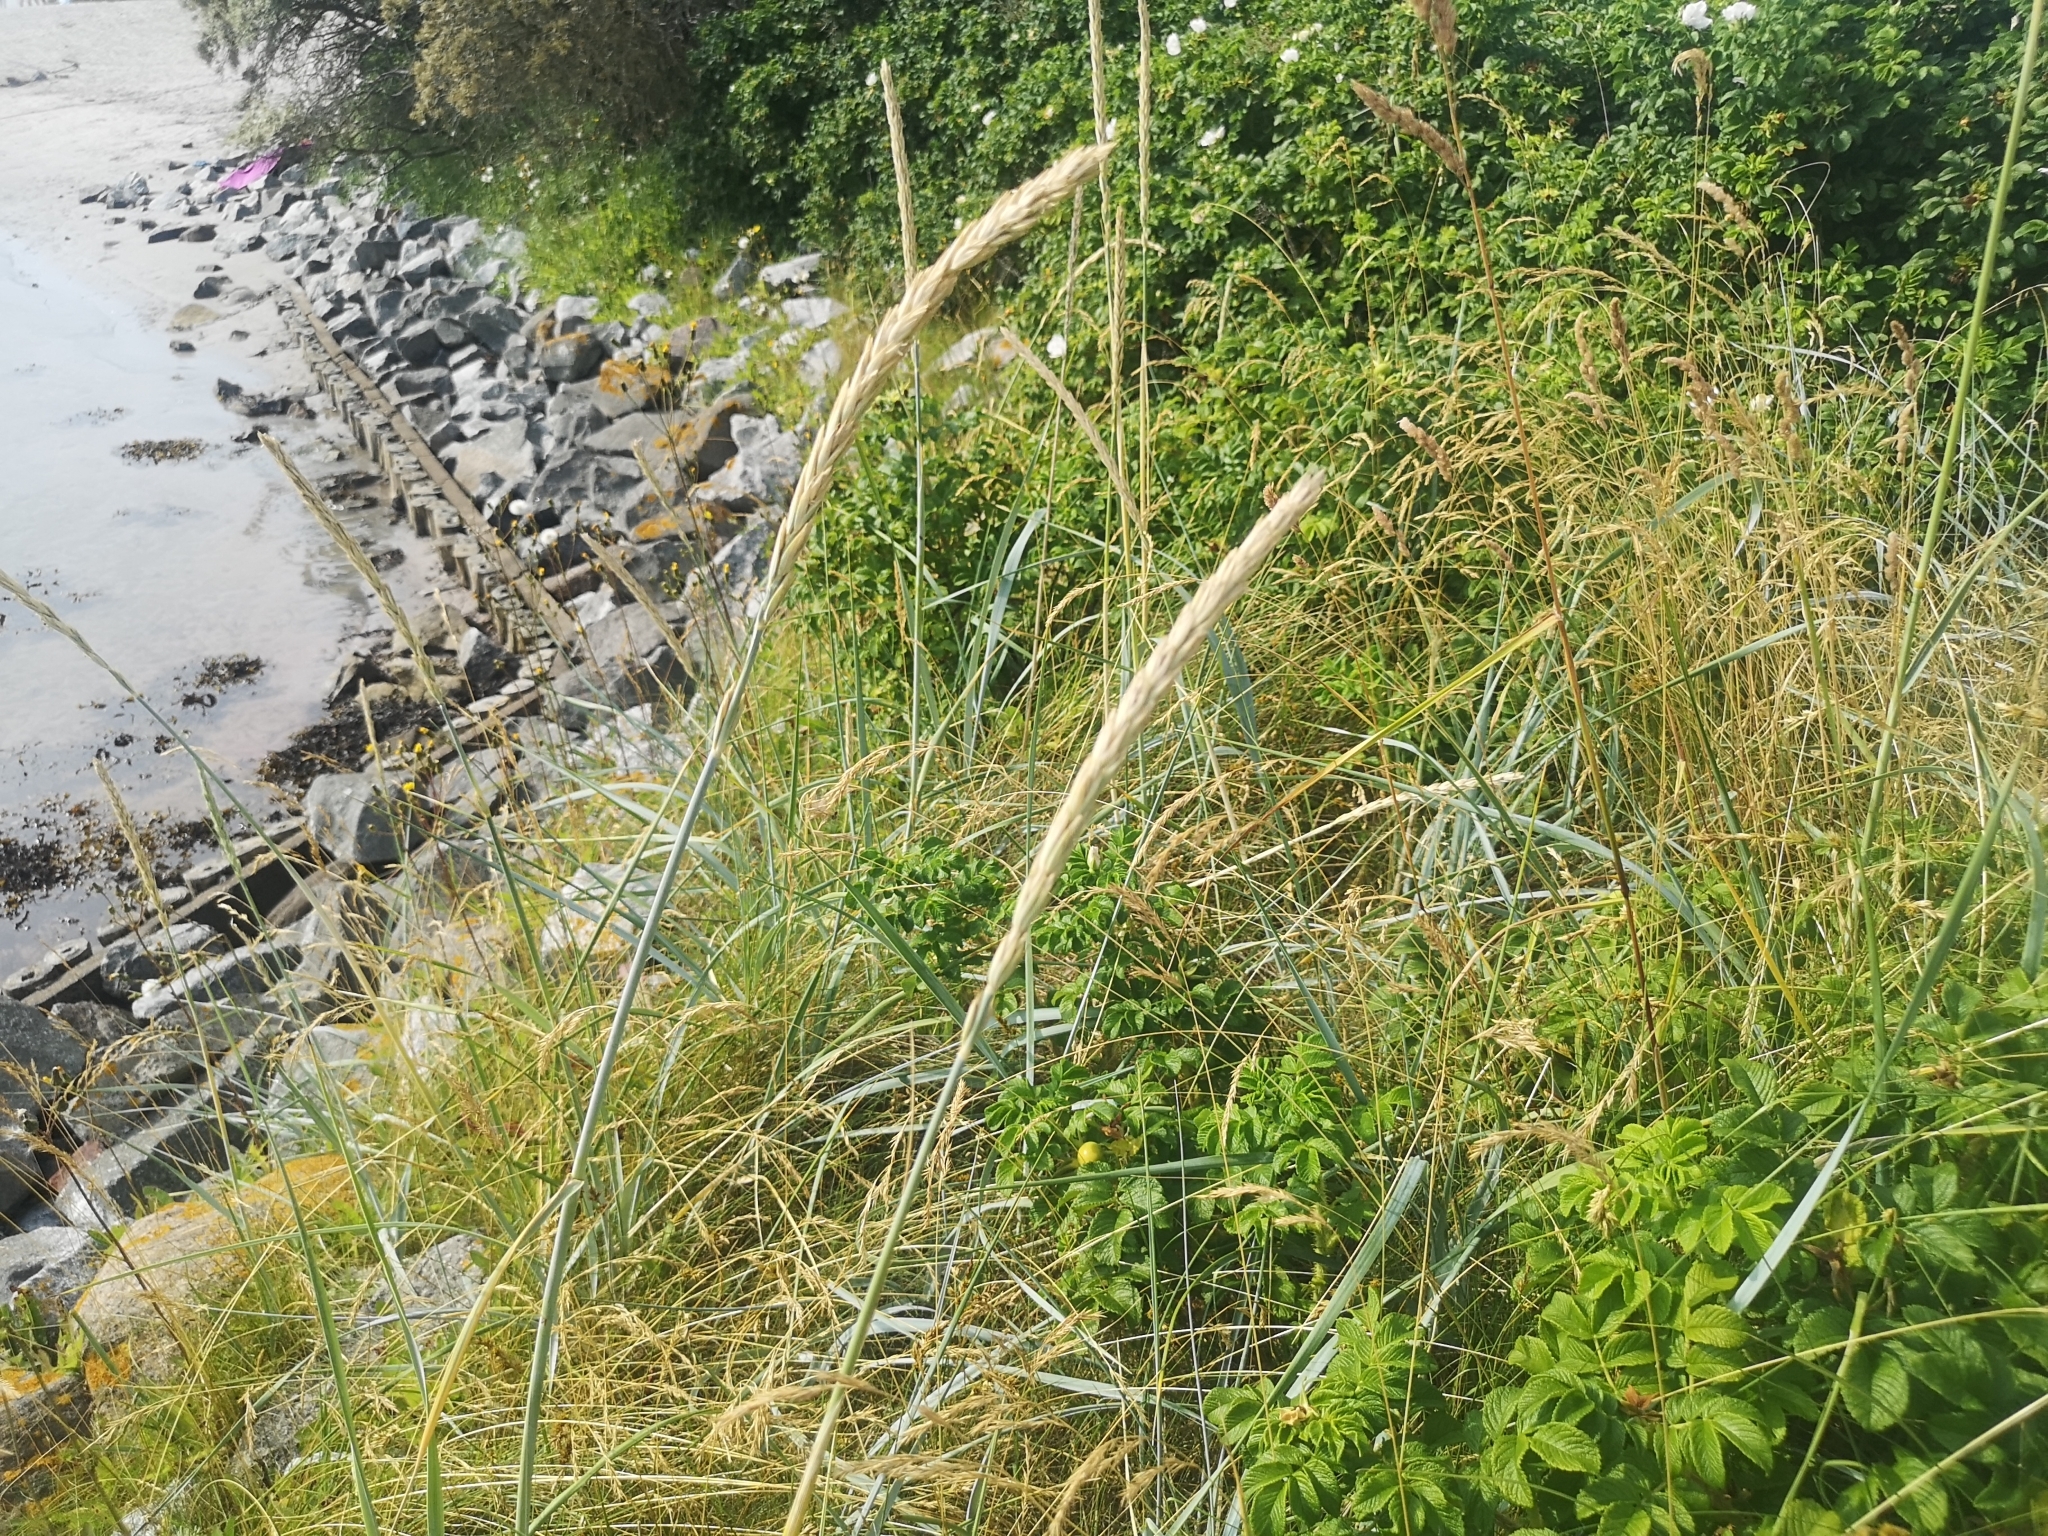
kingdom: Plantae
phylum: Tracheophyta
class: Liliopsida
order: Poales
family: Poaceae
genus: Leymus
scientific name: Leymus arenarius
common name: Lyme-grass
